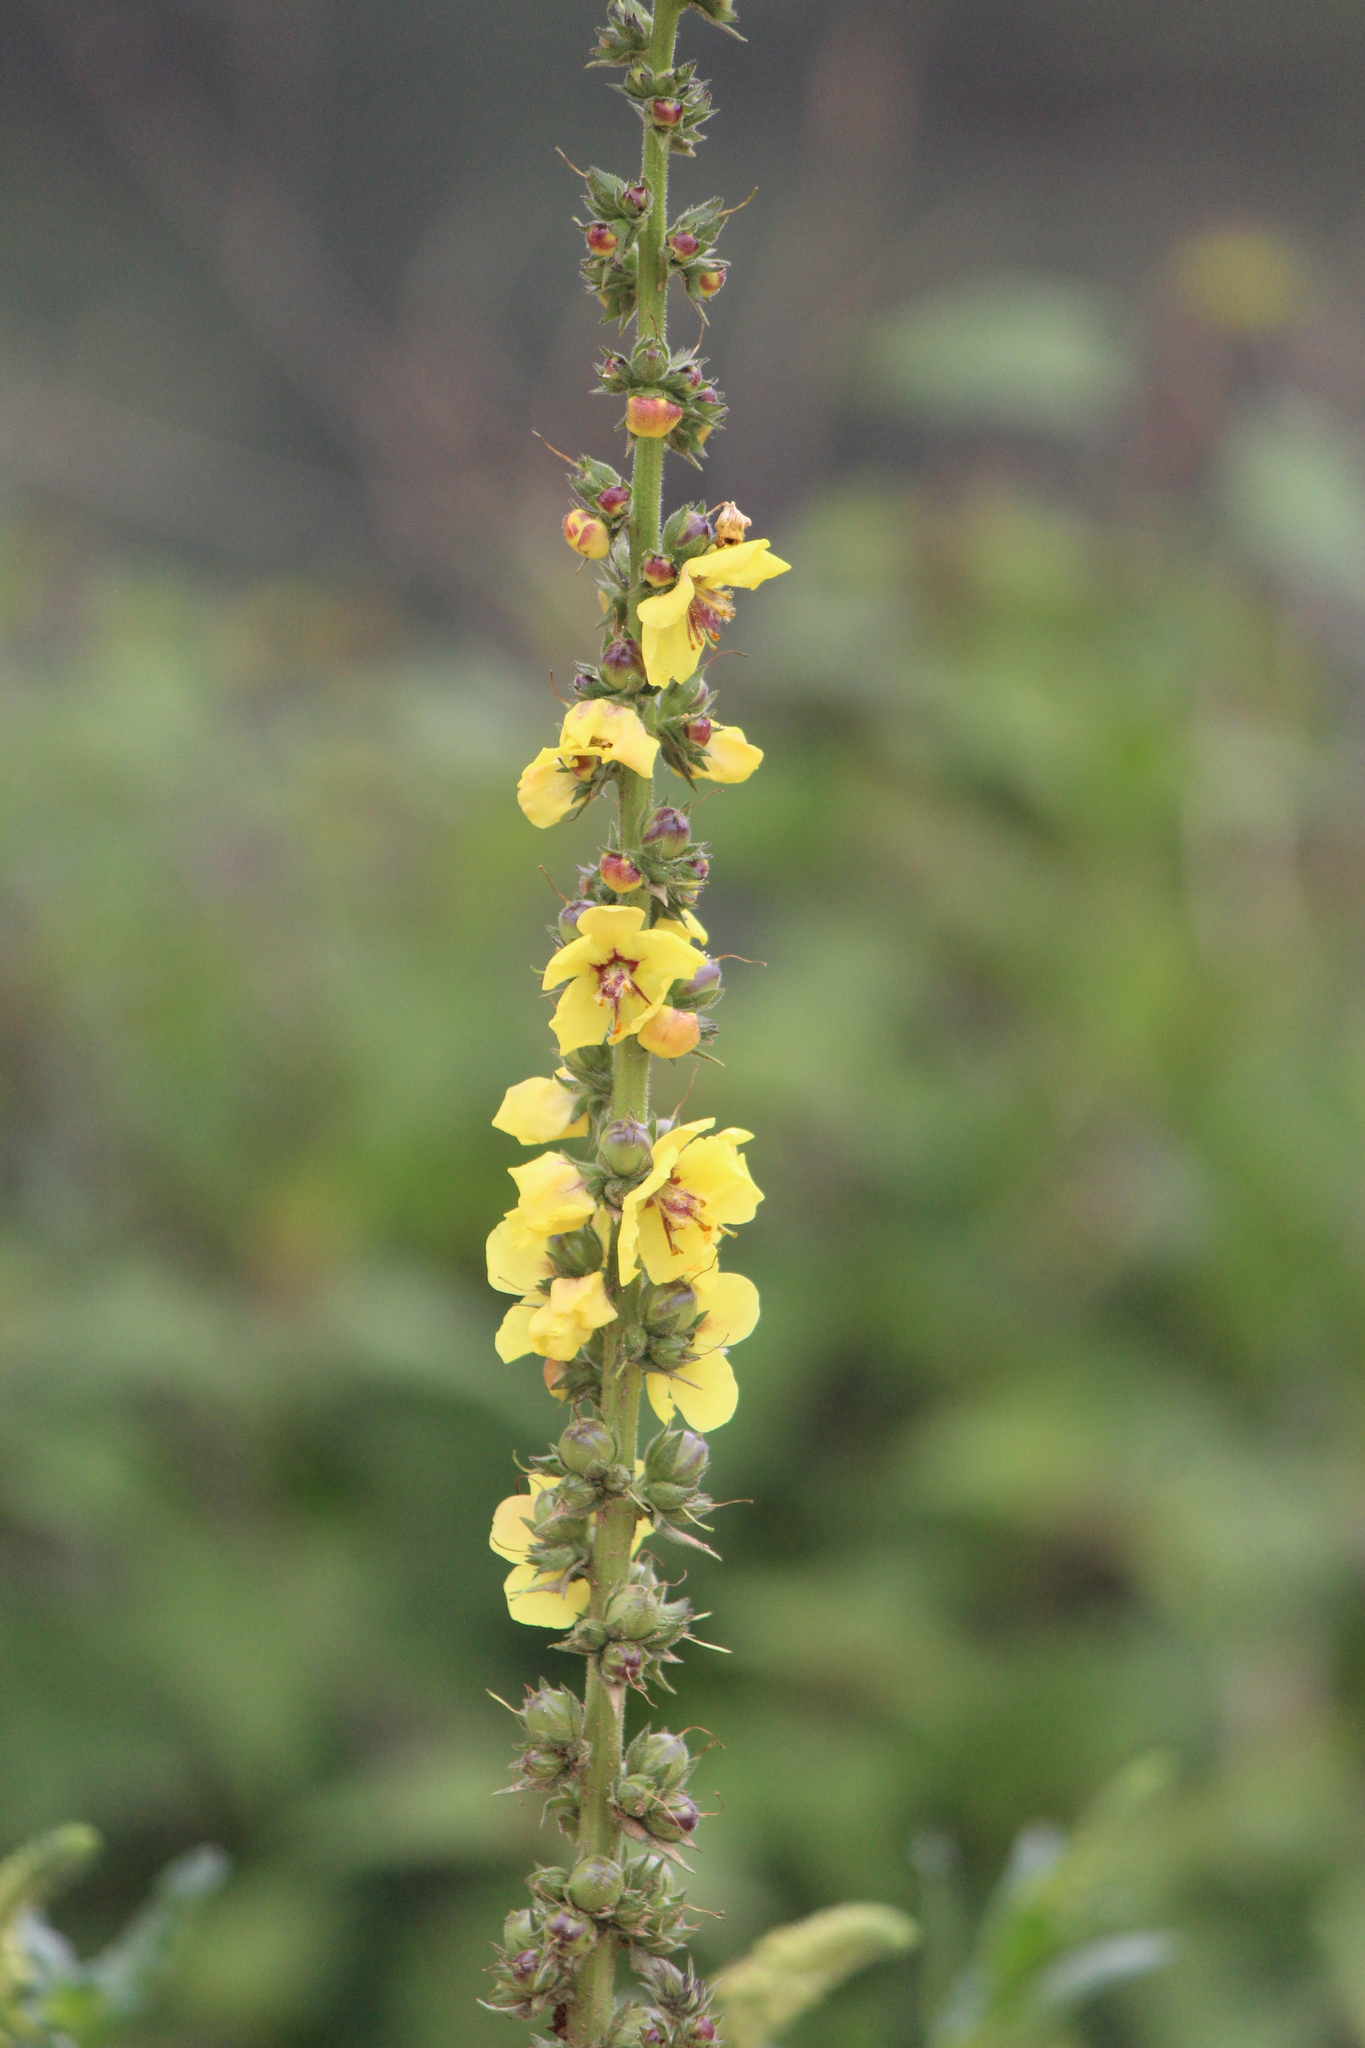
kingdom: Plantae
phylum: Tracheophyta
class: Magnoliopsida
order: Lamiales
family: Scrophulariaceae
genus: Verbascum
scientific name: Verbascum virgatum
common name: Twiggy mullein
